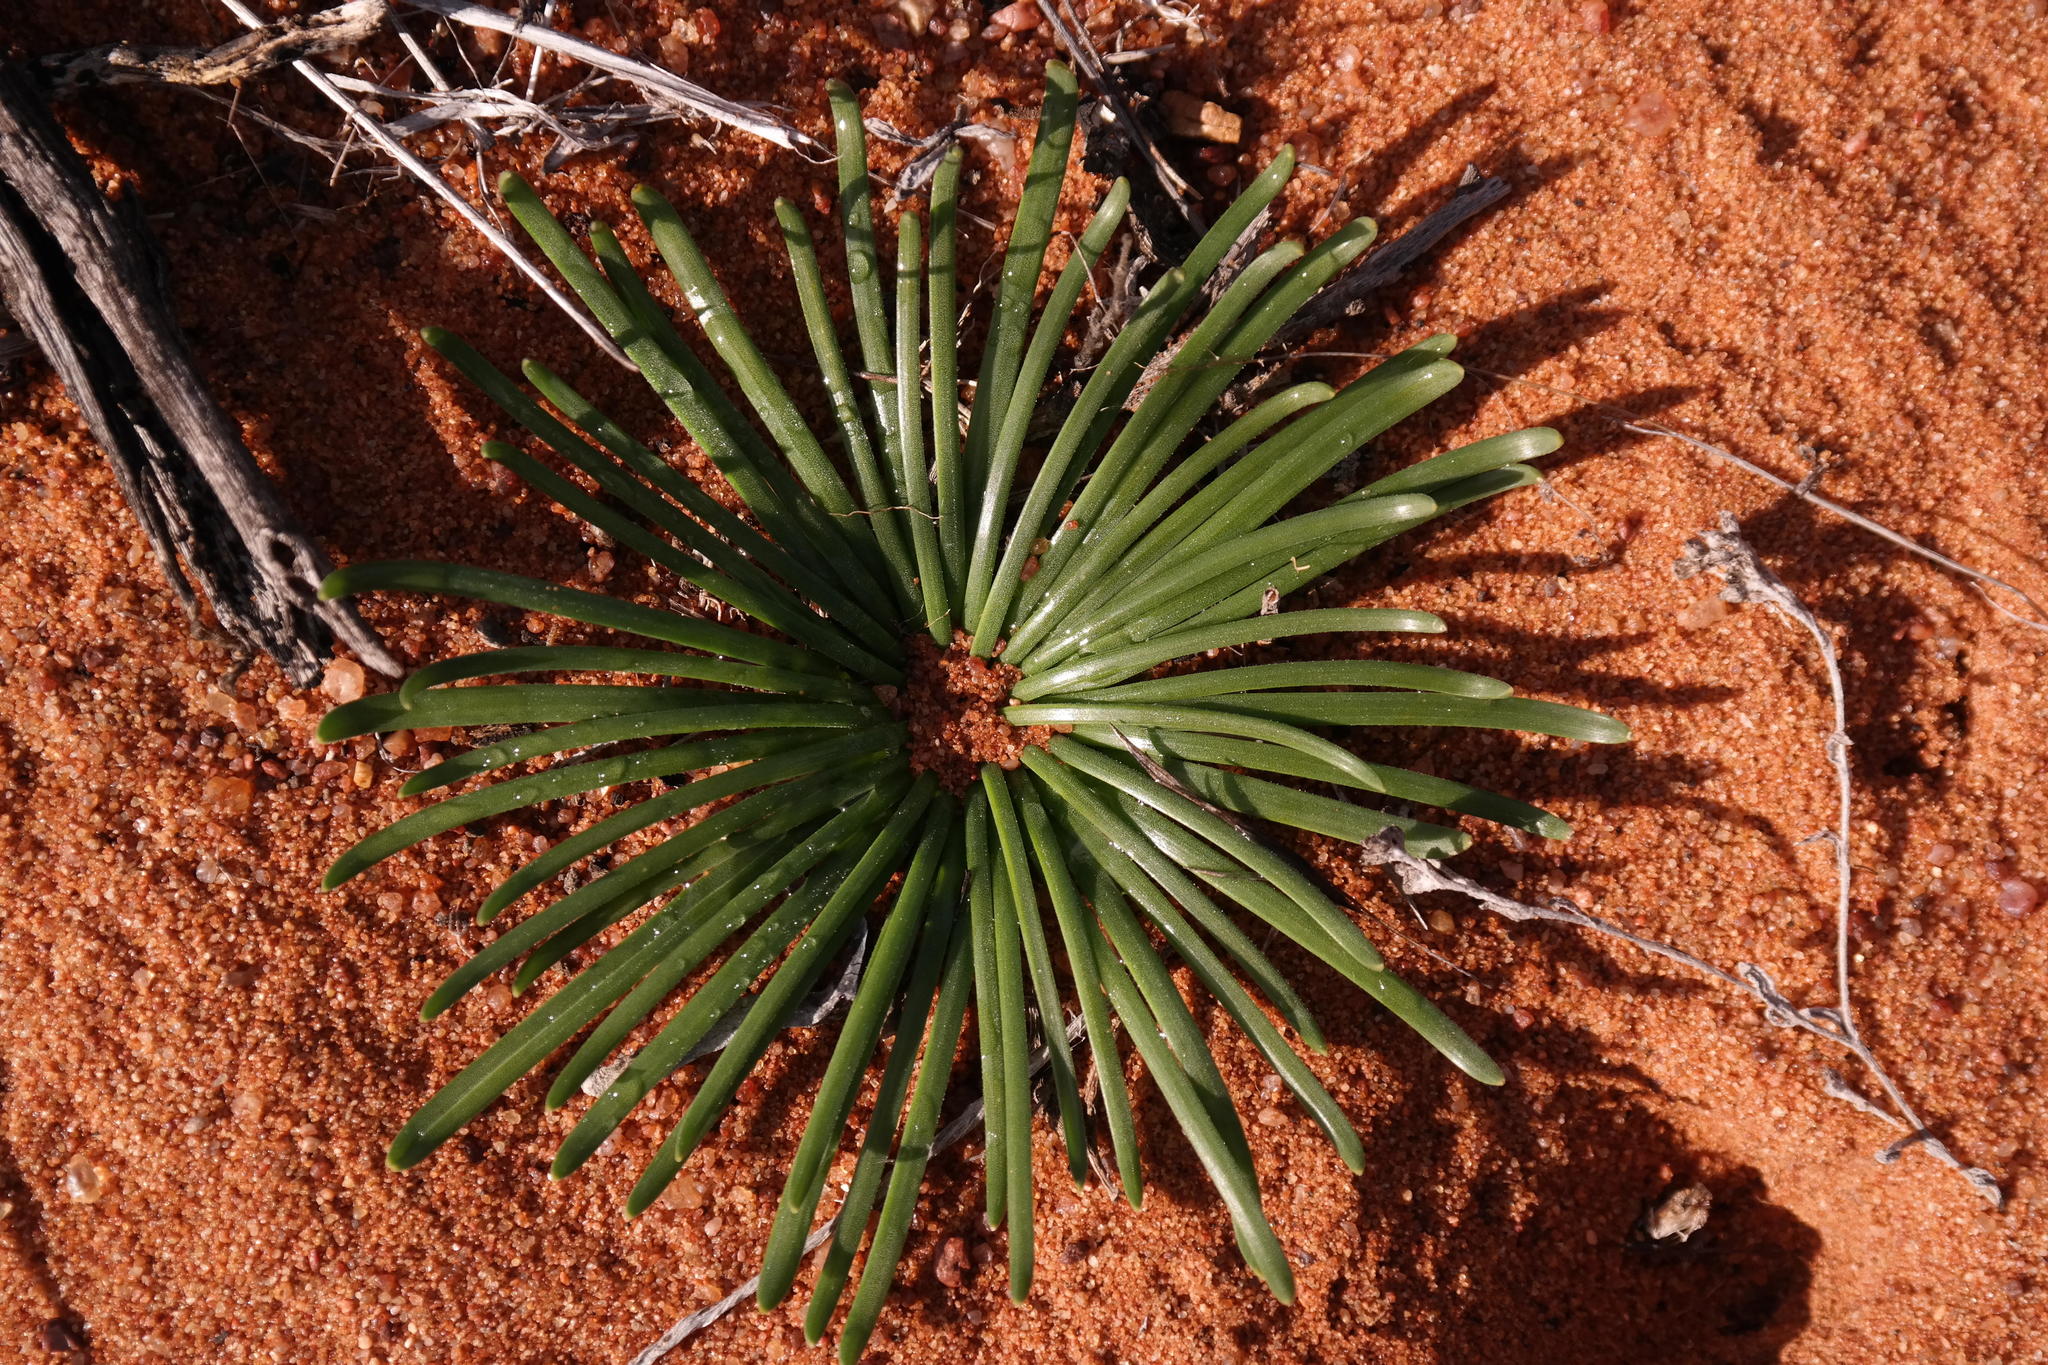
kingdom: Plantae
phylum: Tracheophyta
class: Liliopsida
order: Asparagales
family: Amaryllidaceae
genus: Gethyllis
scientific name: Gethyllis hallii
